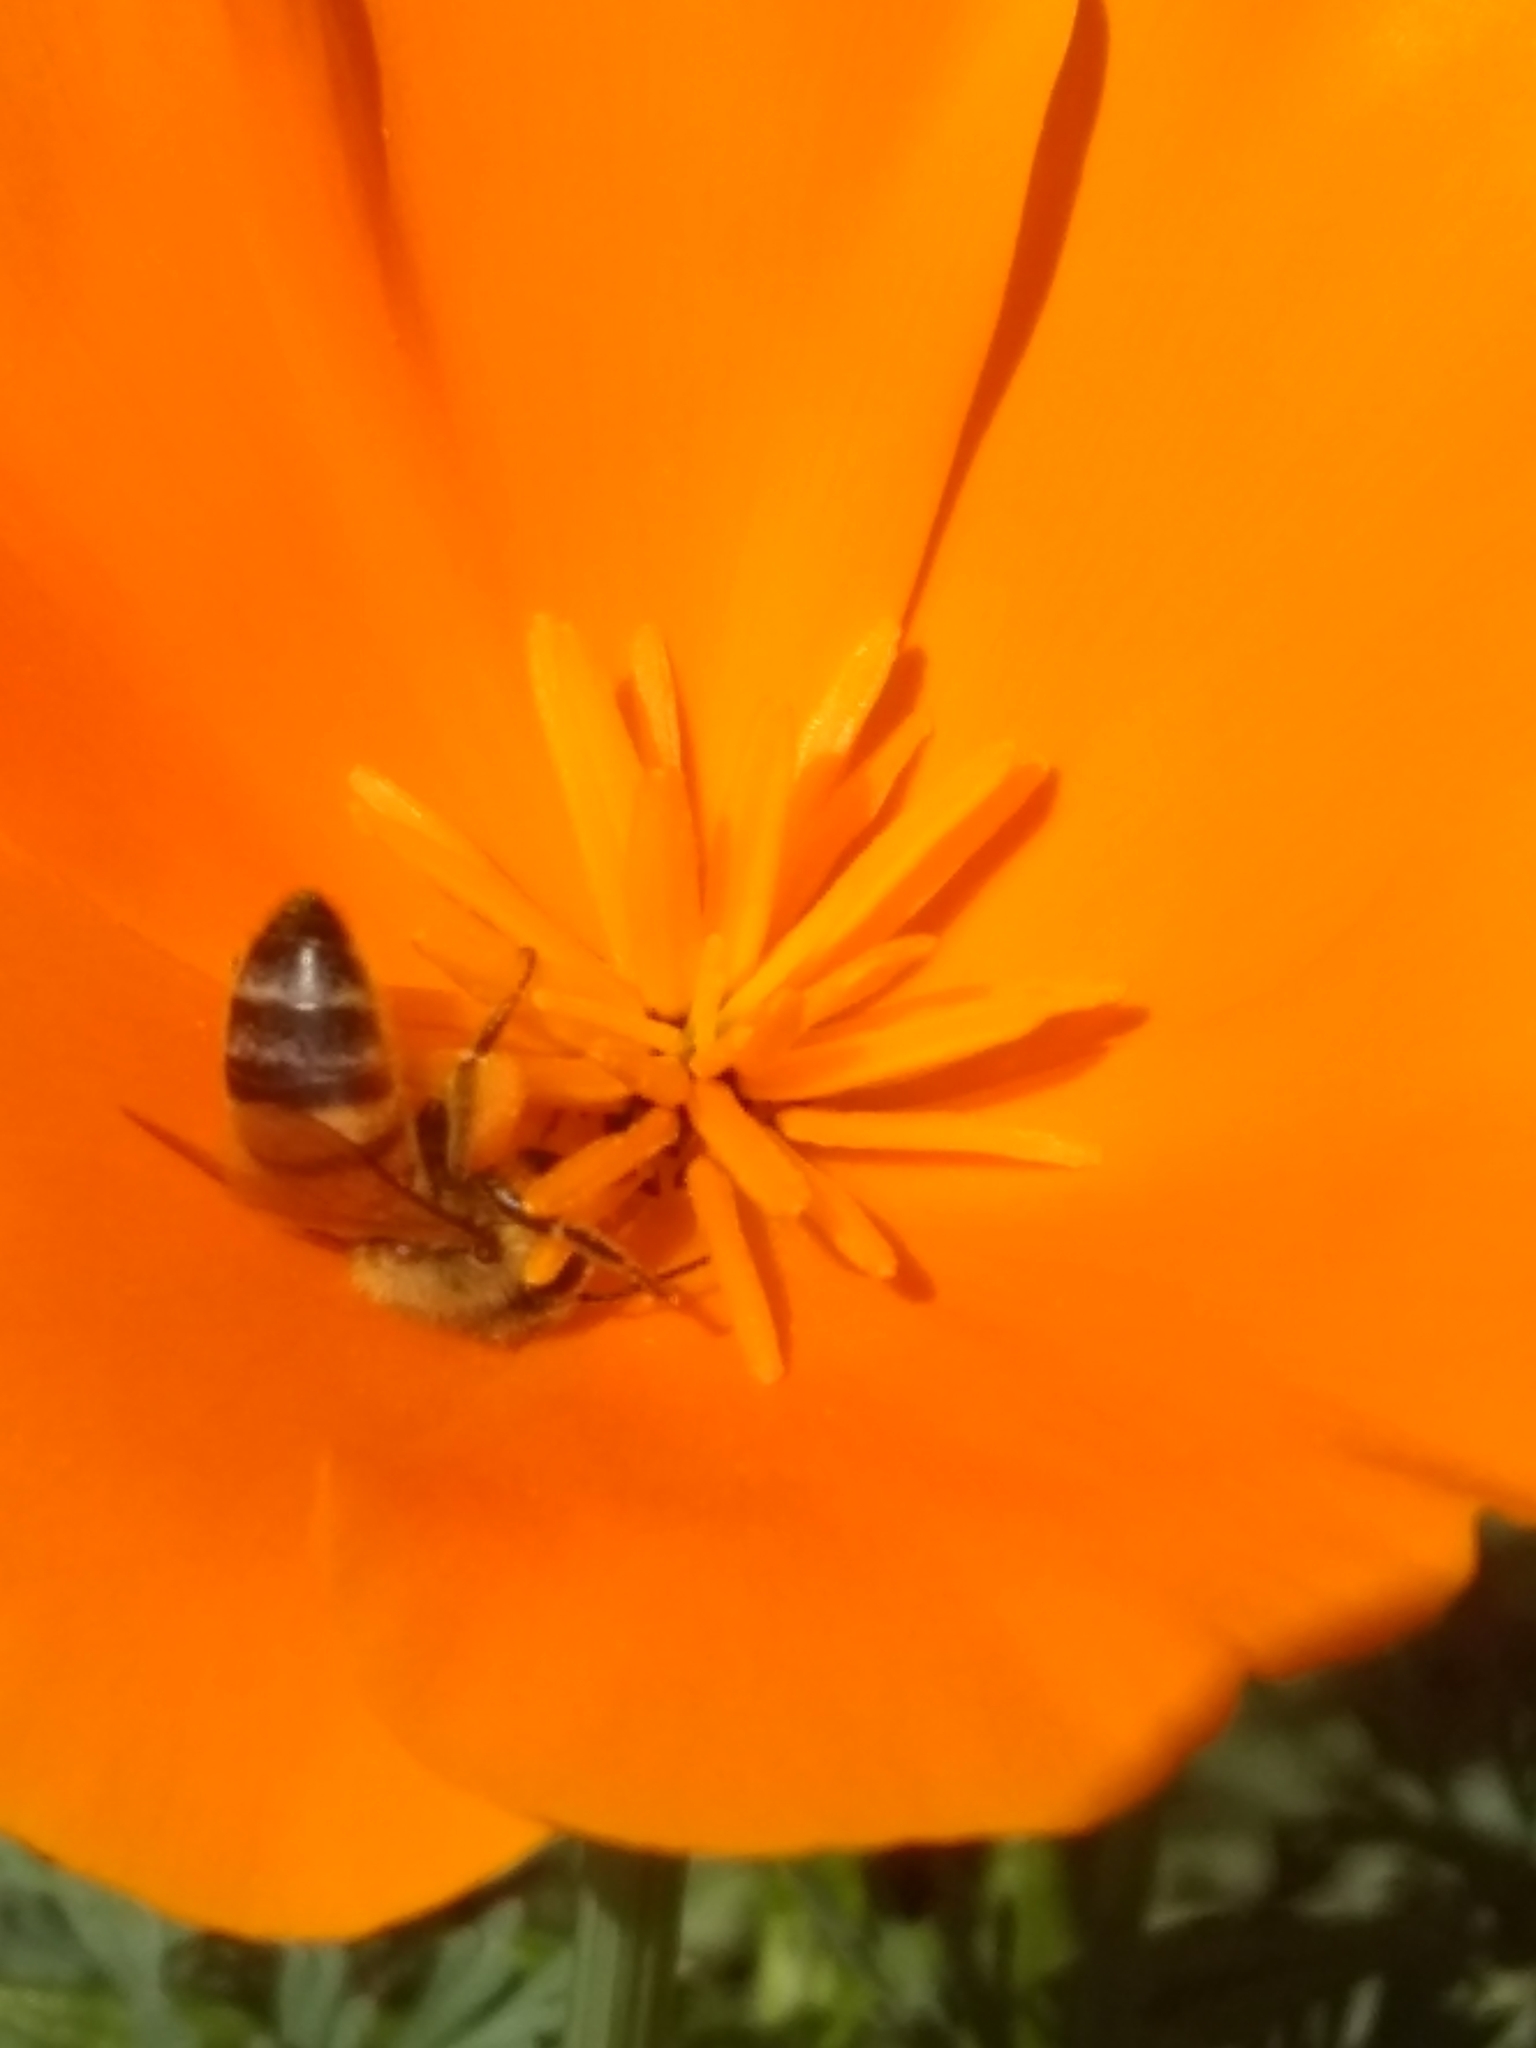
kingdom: Animalia
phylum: Arthropoda
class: Insecta
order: Hymenoptera
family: Apidae
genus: Apis
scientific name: Apis mellifera
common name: Honey bee
